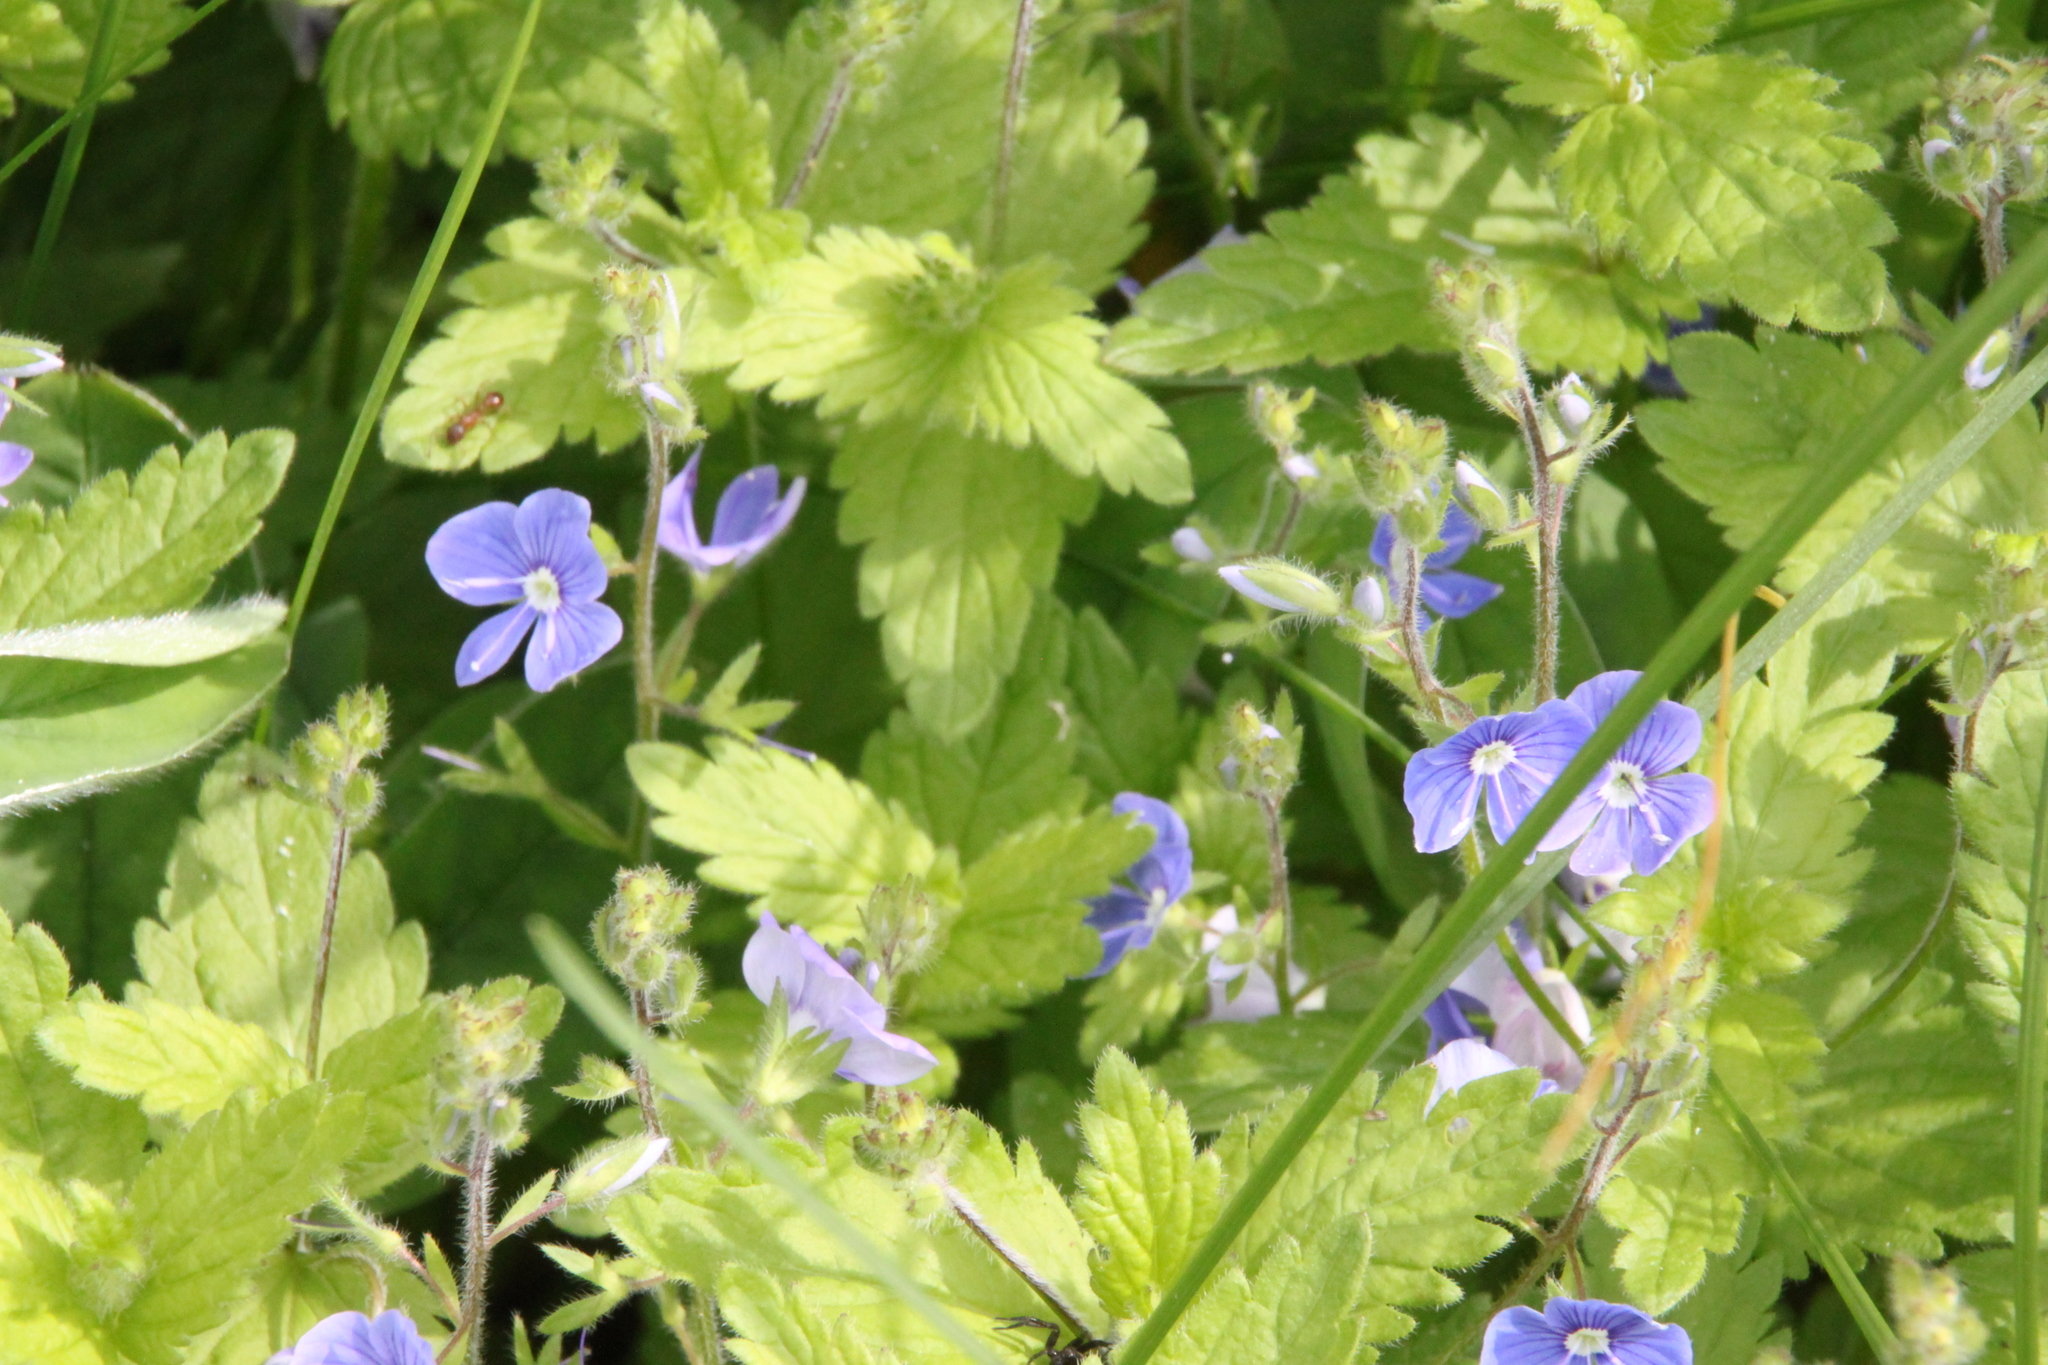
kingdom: Plantae
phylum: Tracheophyta
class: Magnoliopsida
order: Lamiales
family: Plantaginaceae
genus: Veronica
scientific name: Veronica chamaedrys
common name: Germander speedwell
